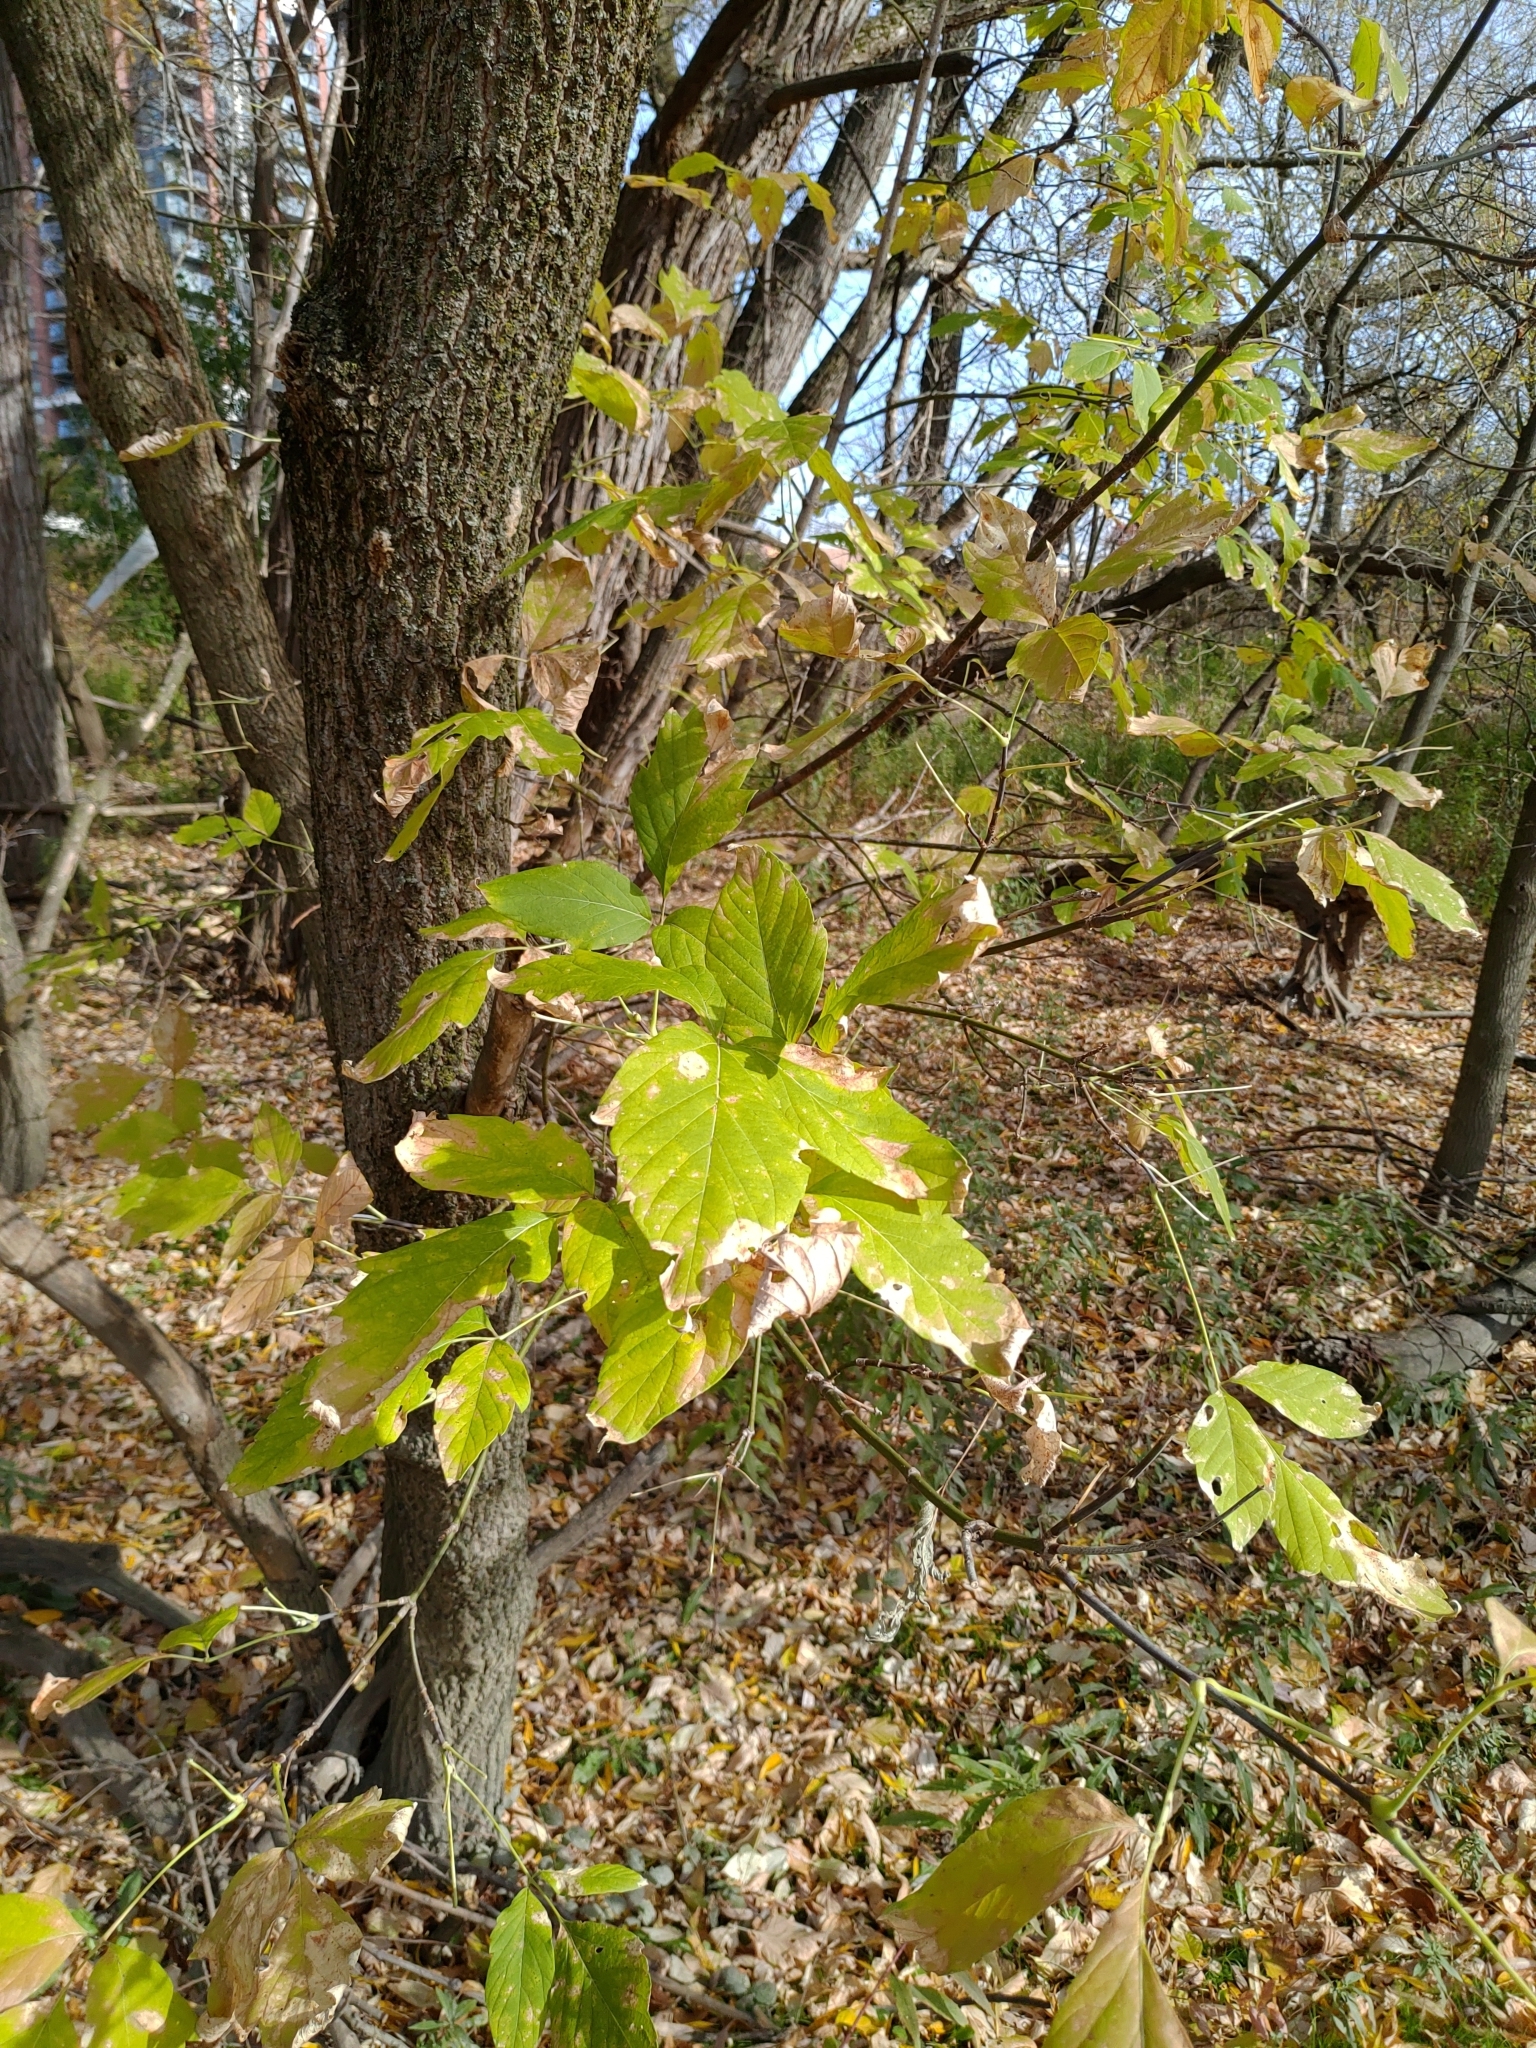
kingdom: Plantae
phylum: Tracheophyta
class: Magnoliopsida
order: Sapindales
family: Sapindaceae
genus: Acer
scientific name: Acer negundo
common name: Ashleaf maple
